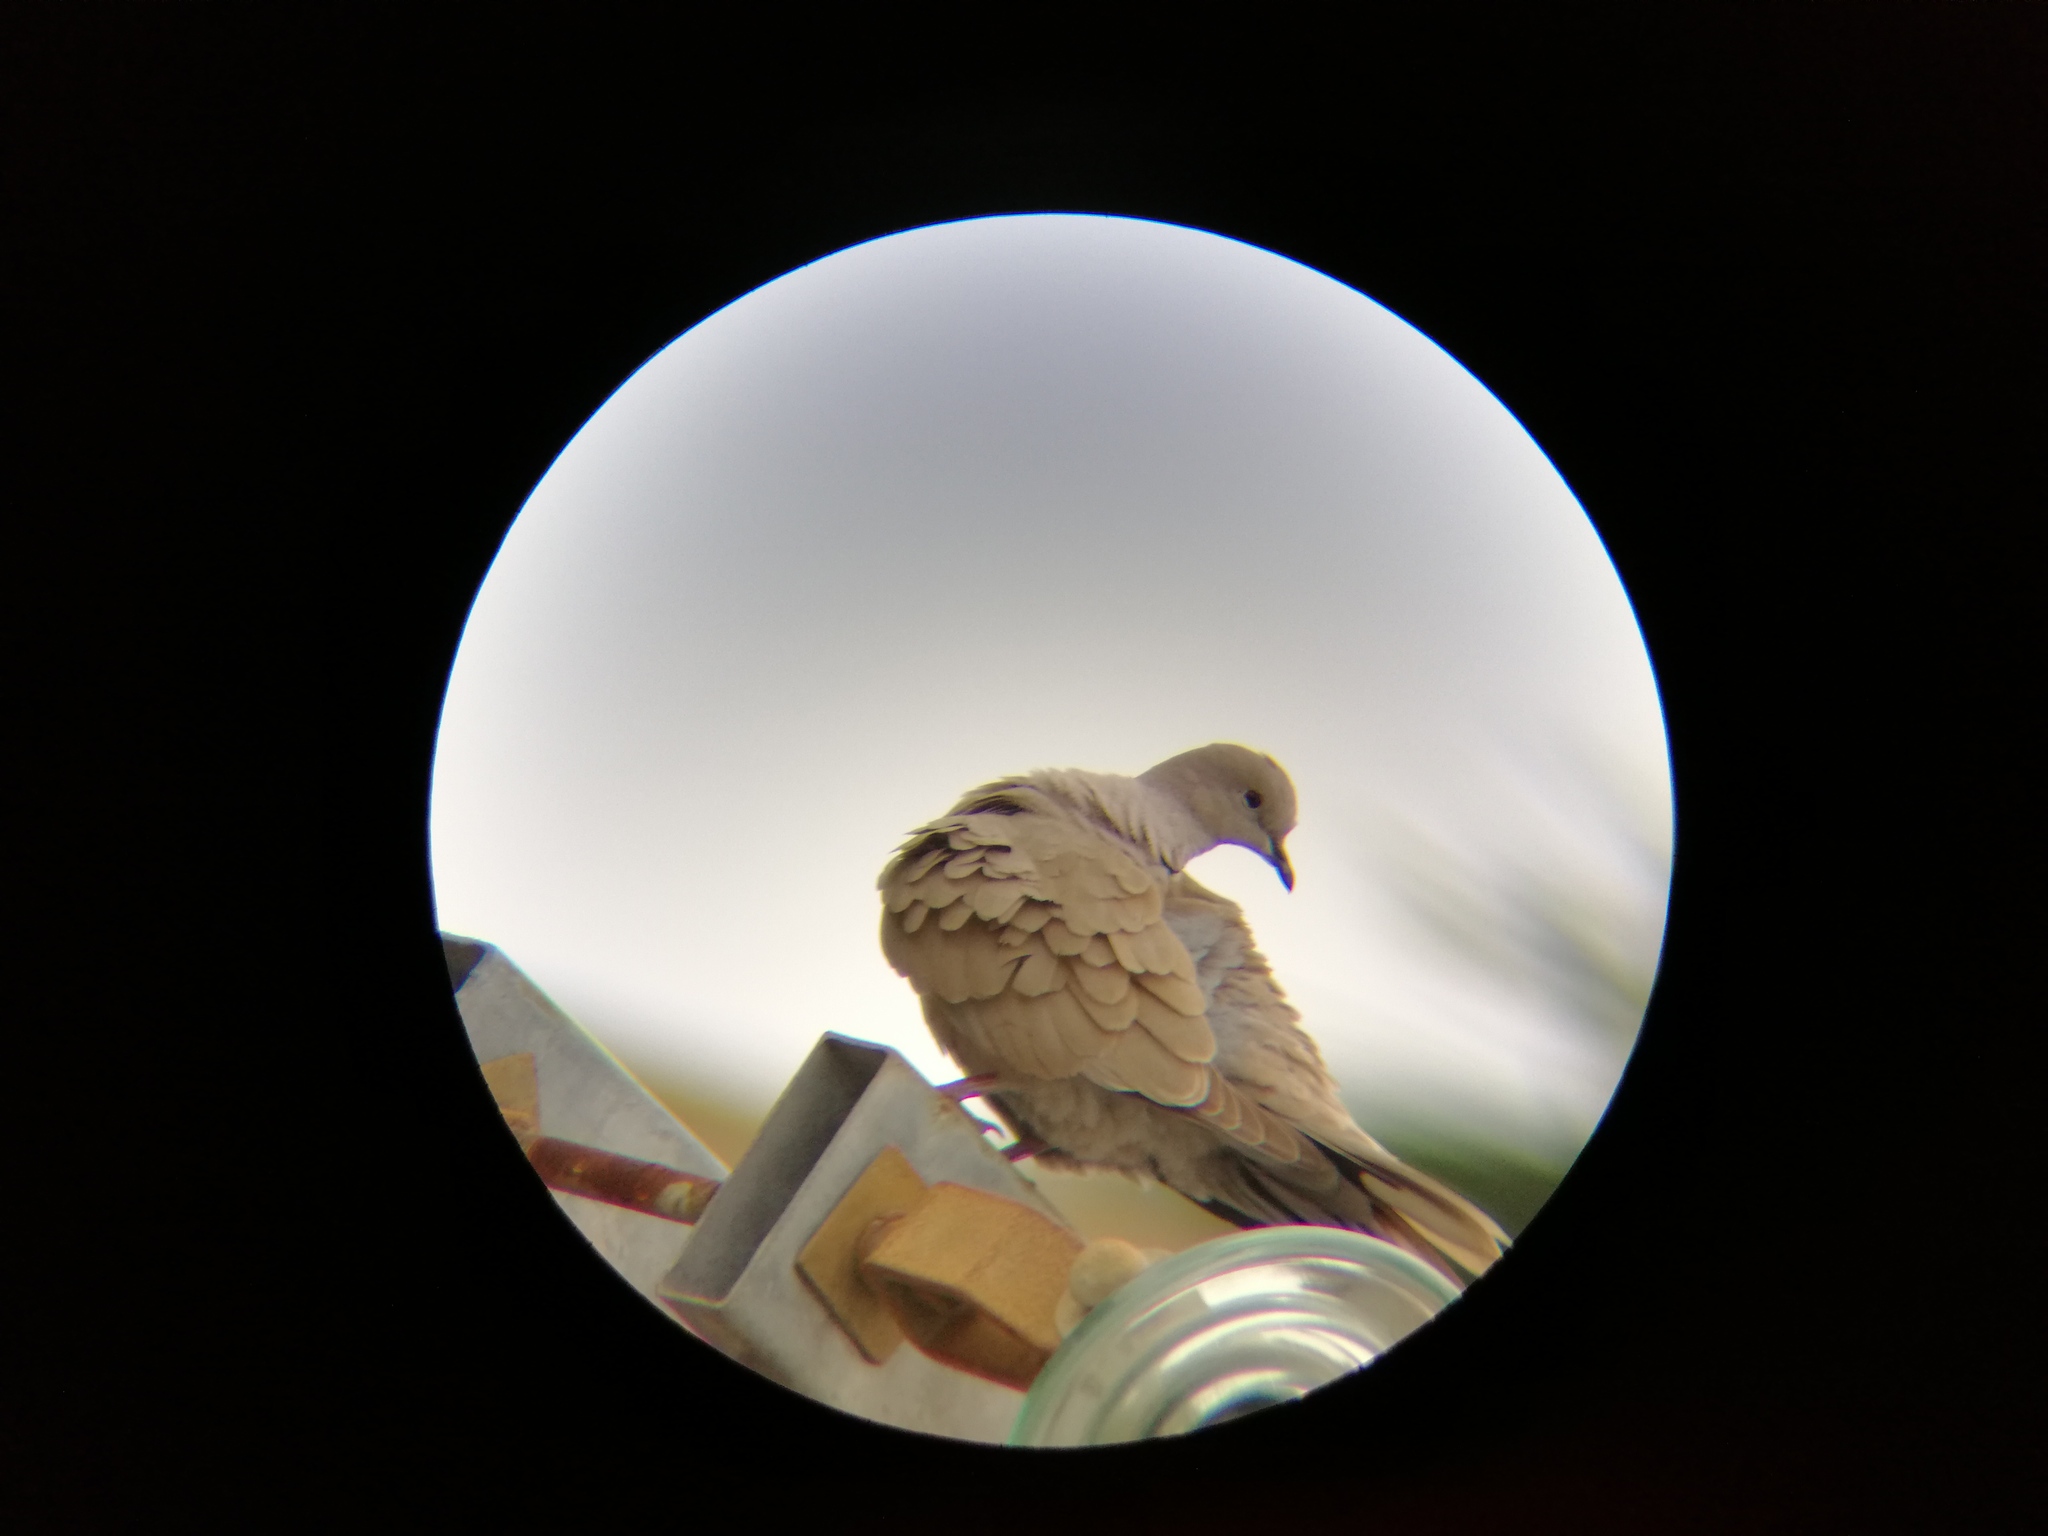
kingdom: Animalia
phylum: Chordata
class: Aves
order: Columbiformes
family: Columbidae
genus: Columbina
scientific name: Columbina inca
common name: Inca dove
